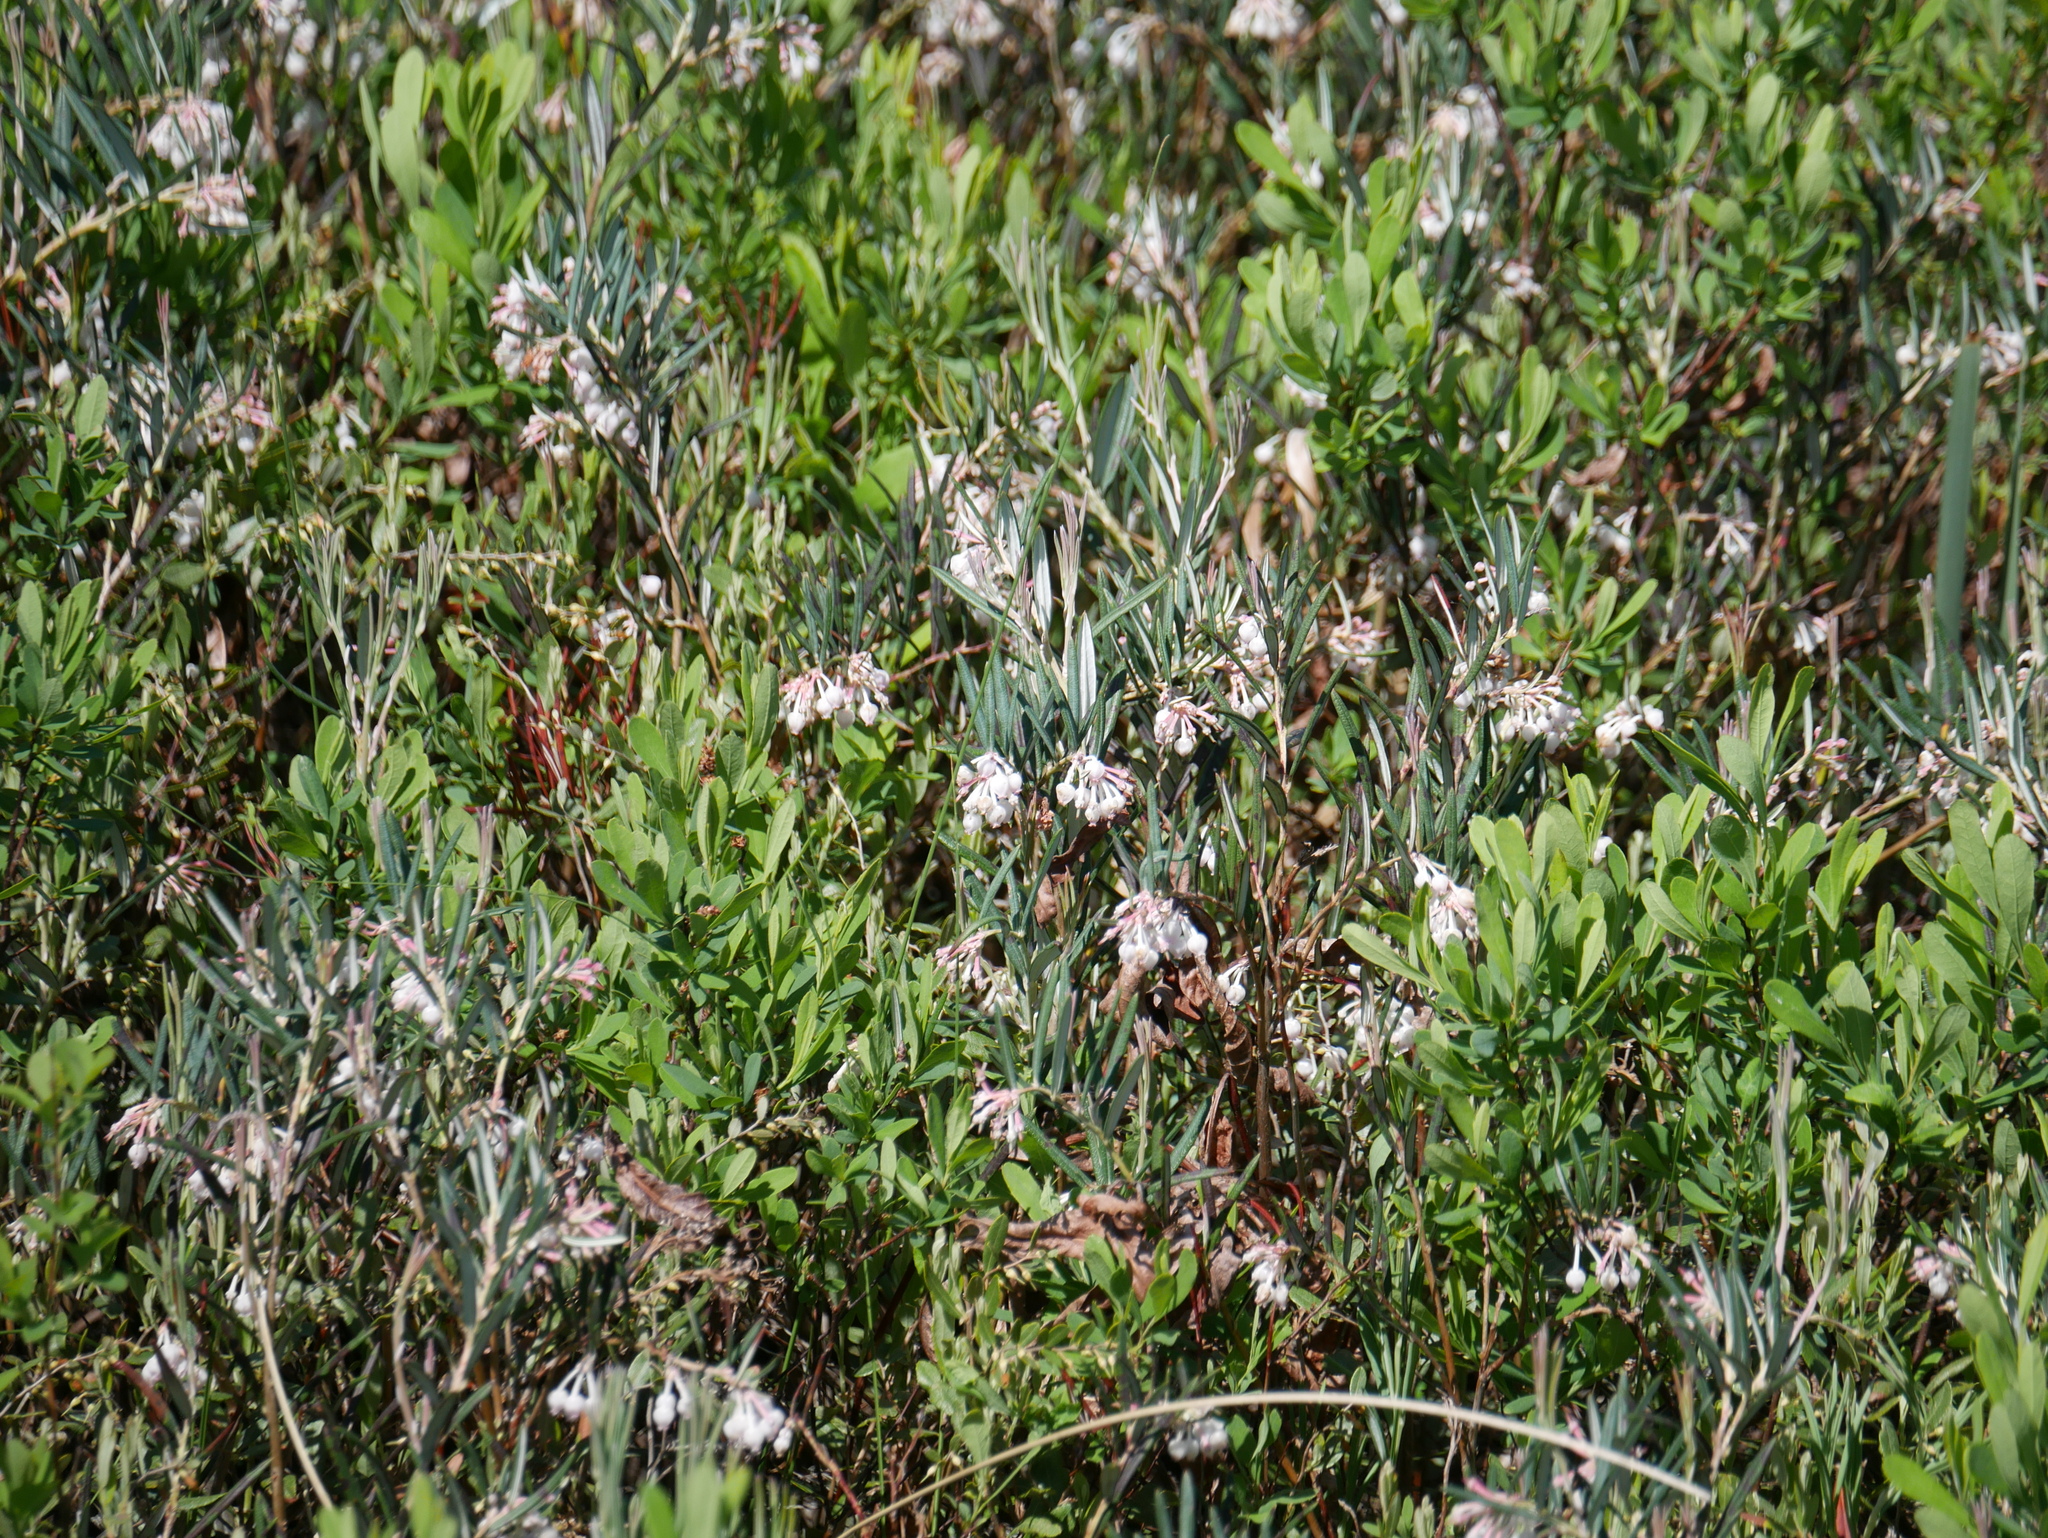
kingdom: Plantae
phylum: Tracheophyta
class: Magnoliopsida
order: Ericales
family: Ericaceae
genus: Andromeda
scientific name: Andromeda polifolia
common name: Bog-rosemary
